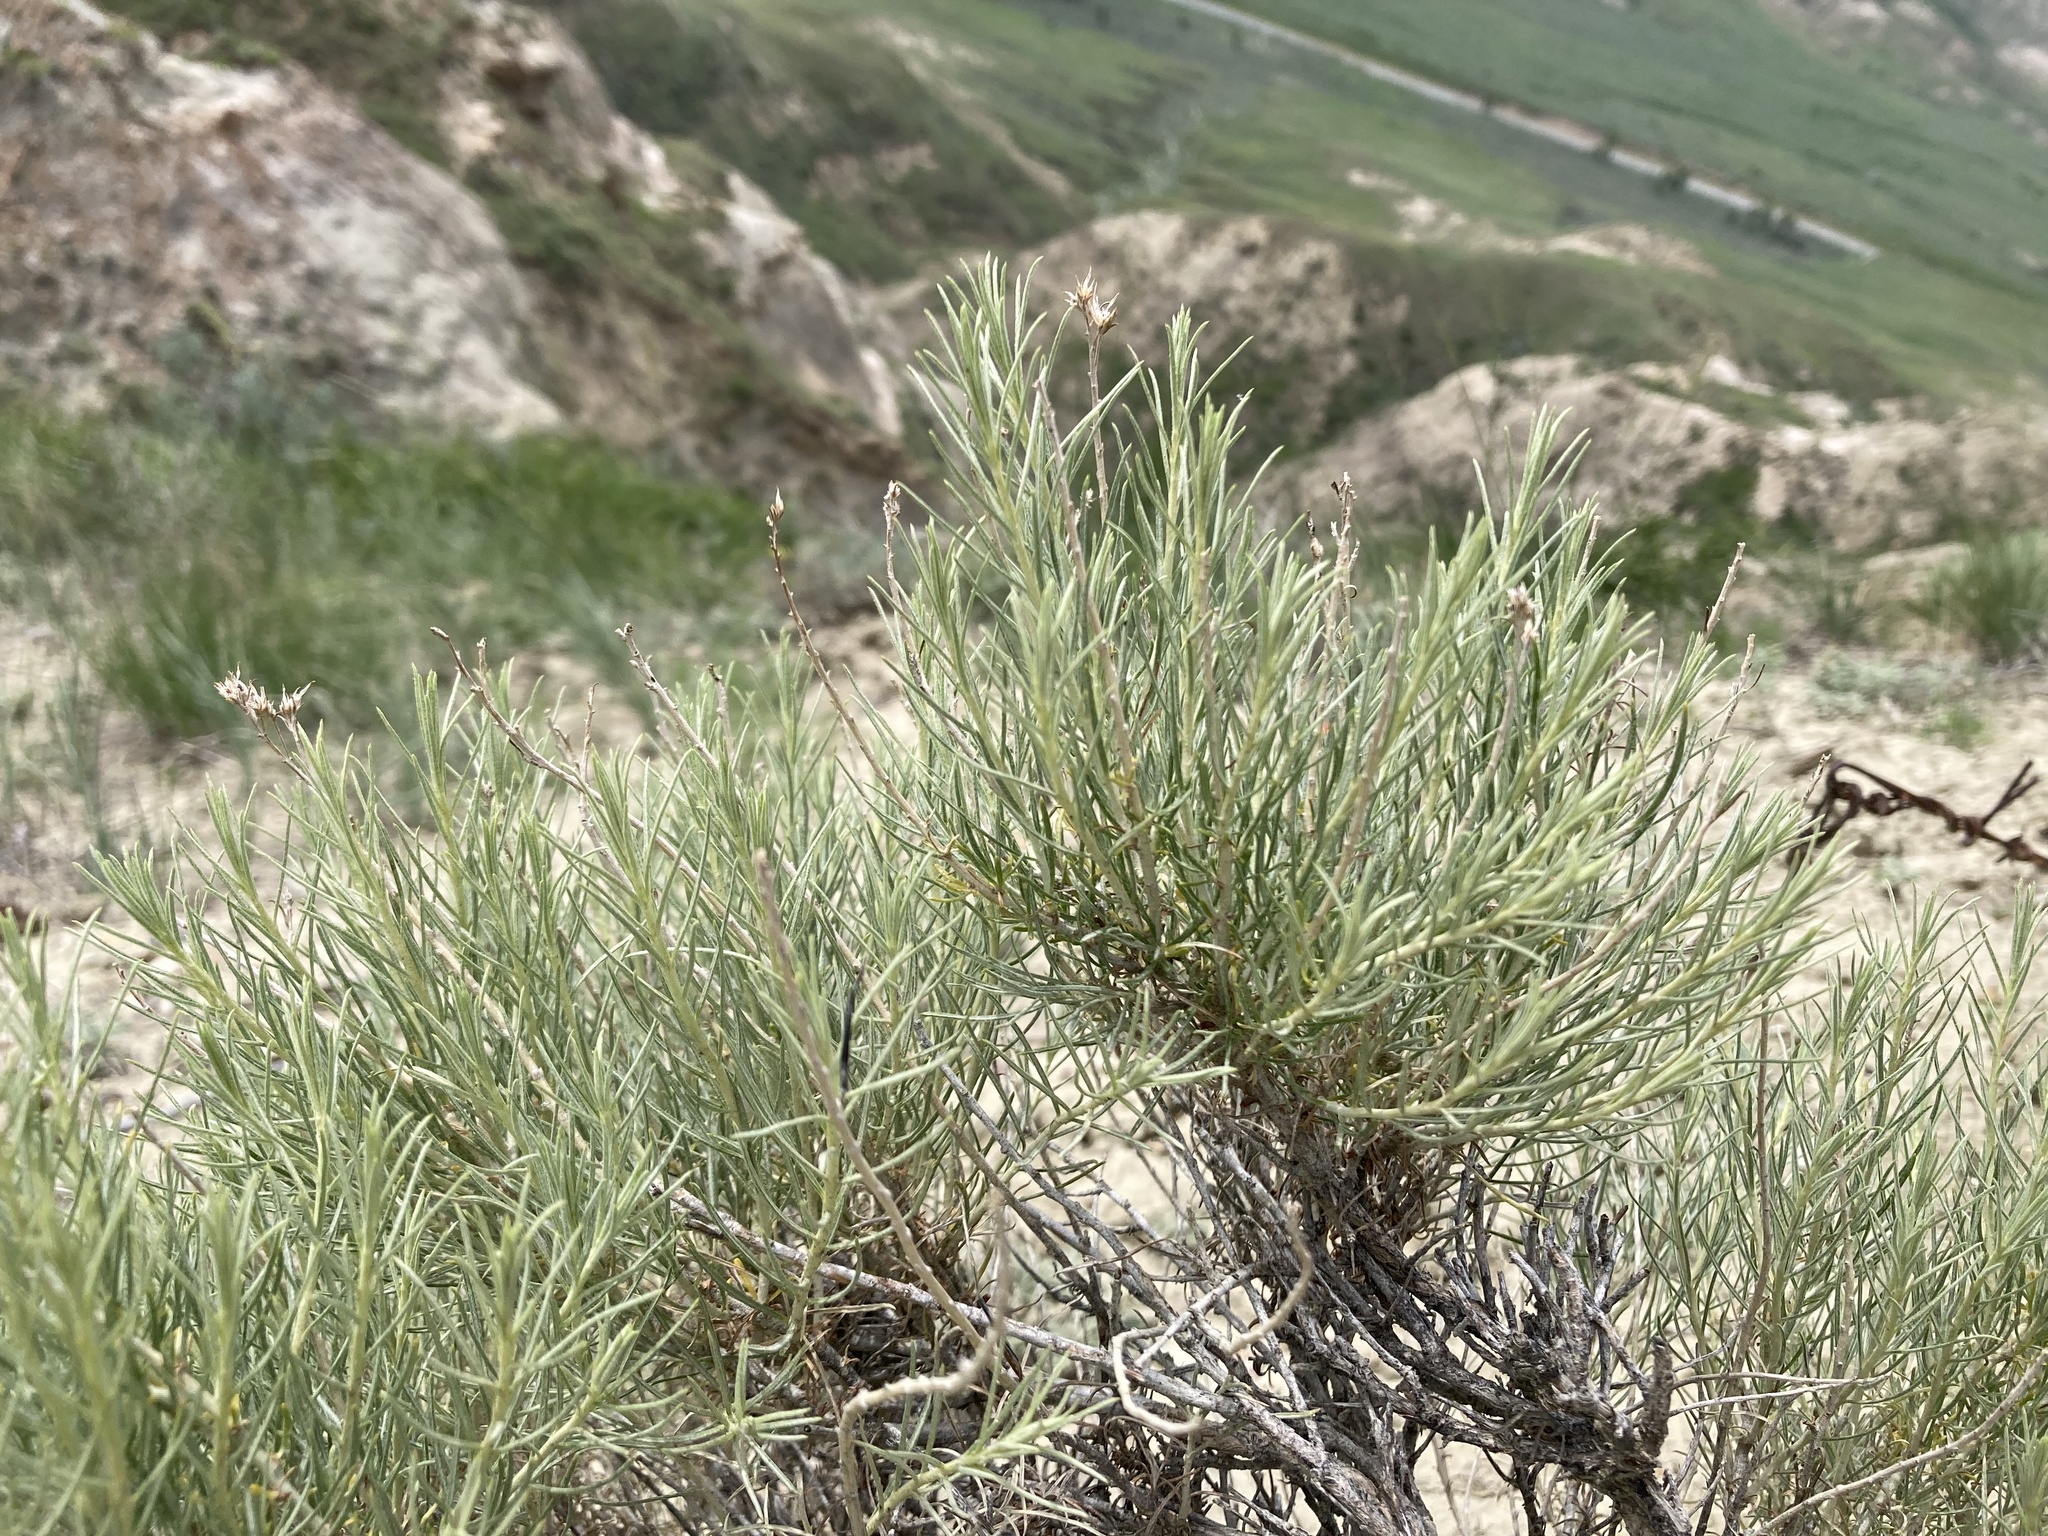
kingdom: Plantae
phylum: Tracheophyta
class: Magnoliopsida
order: Asterales
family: Asteraceae
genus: Ericameria
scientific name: Ericameria nauseosa
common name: Rubber rabbitbrush
